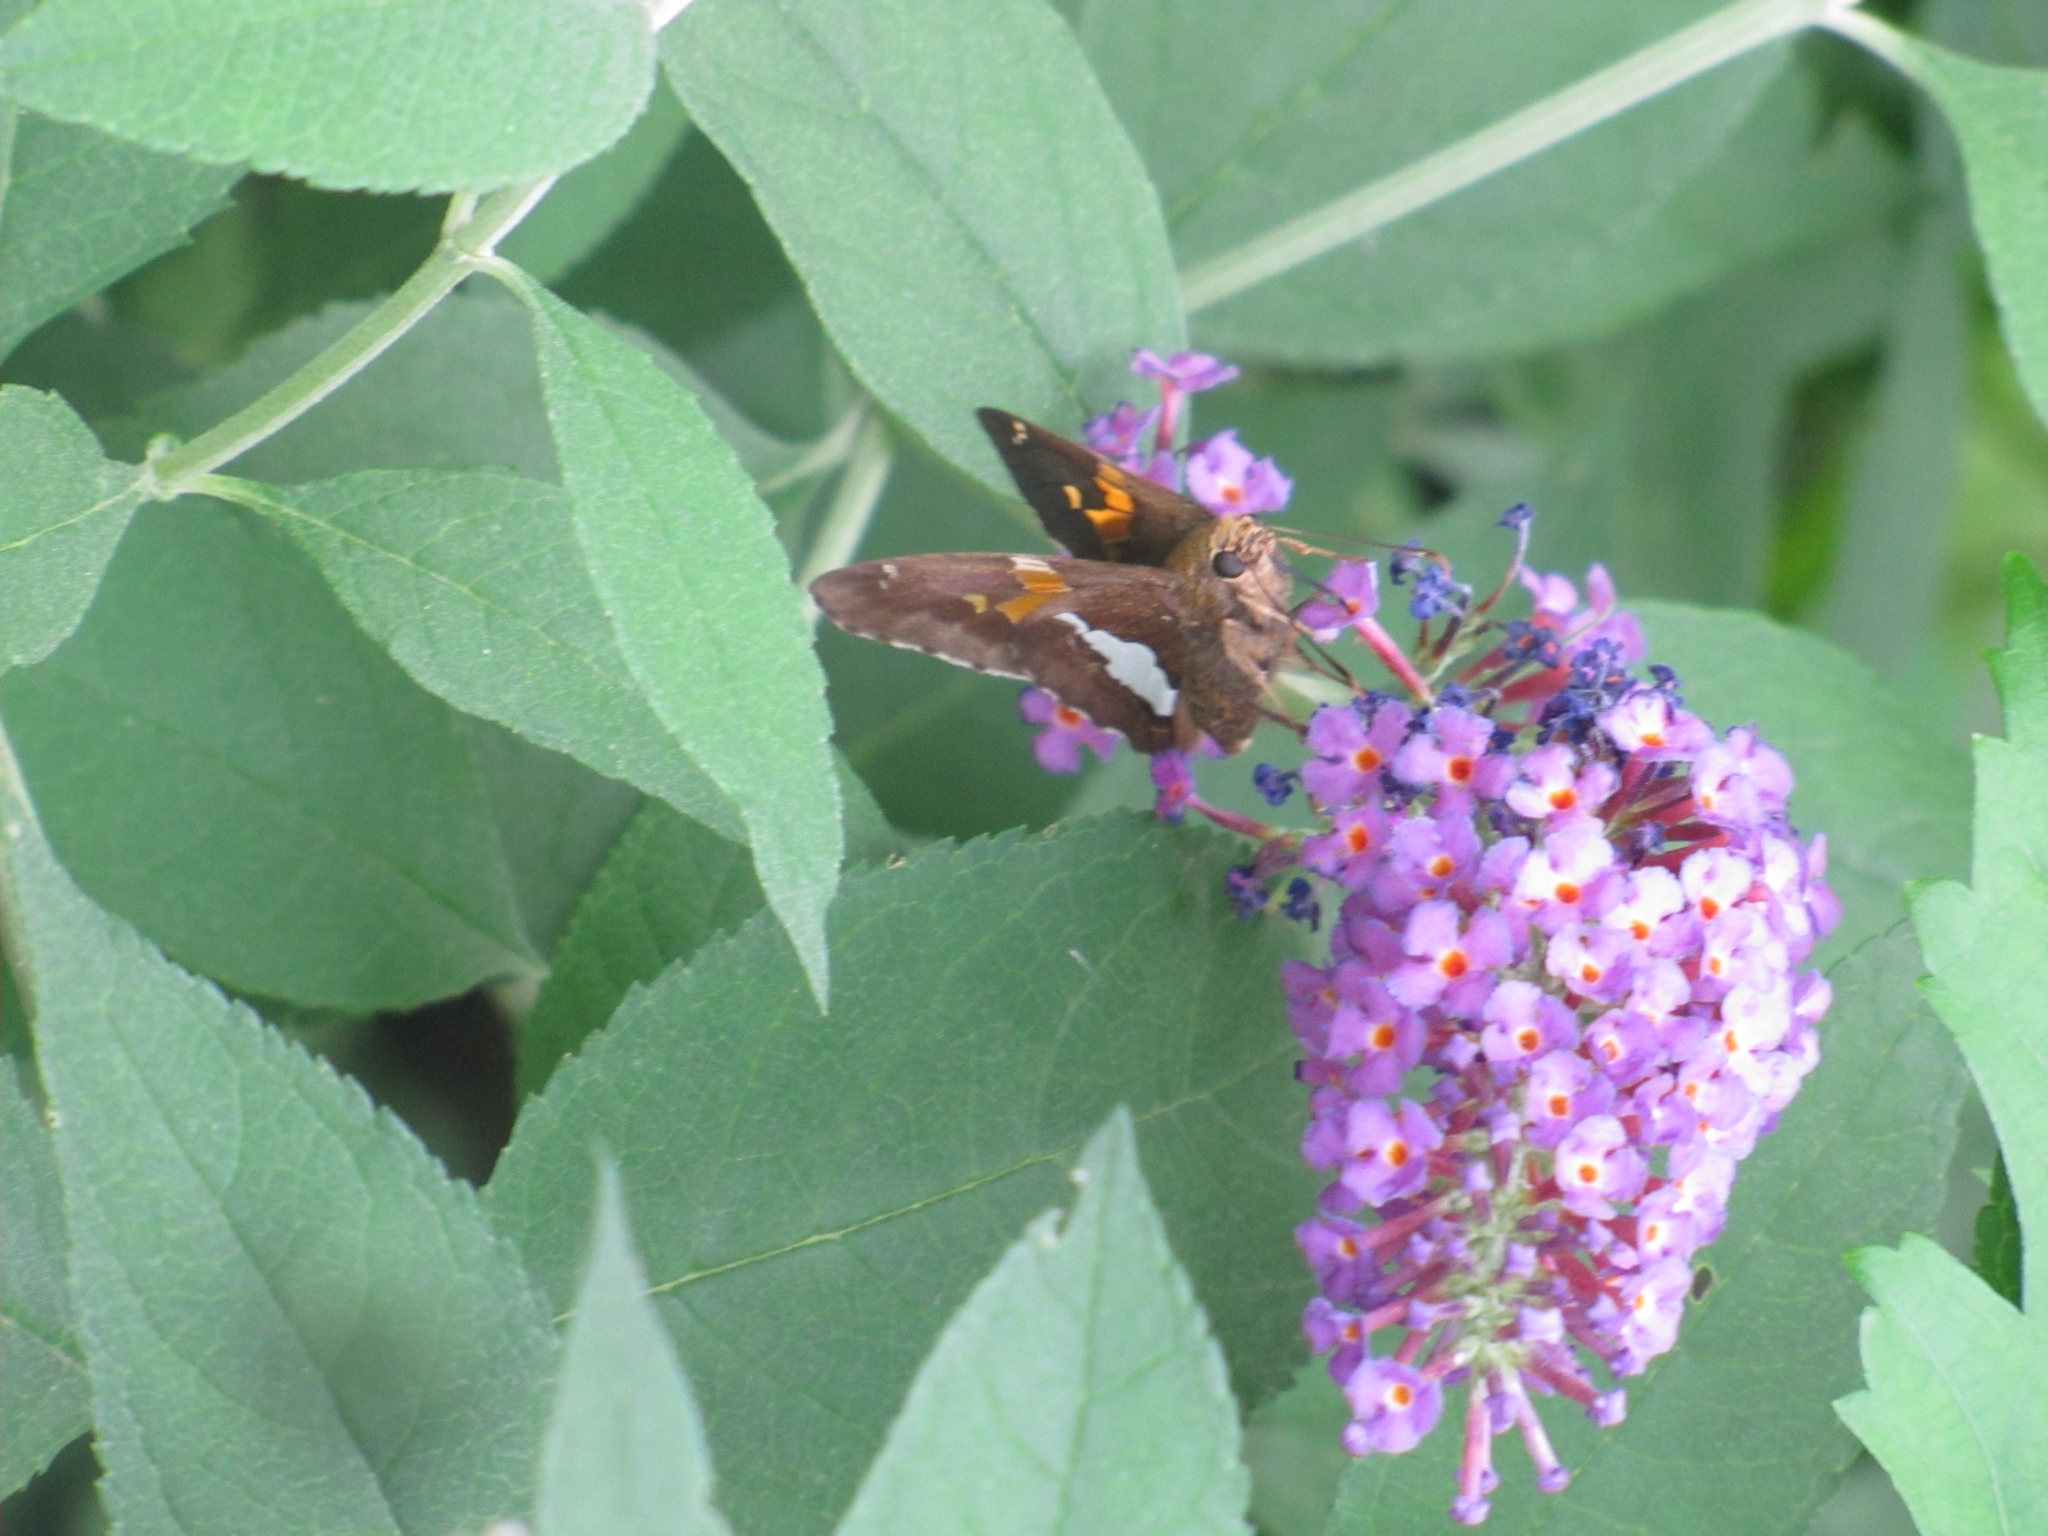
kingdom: Animalia
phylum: Arthropoda
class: Insecta
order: Lepidoptera
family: Hesperiidae
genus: Epargyreus
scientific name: Epargyreus clarus
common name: Silver-spotted skipper
